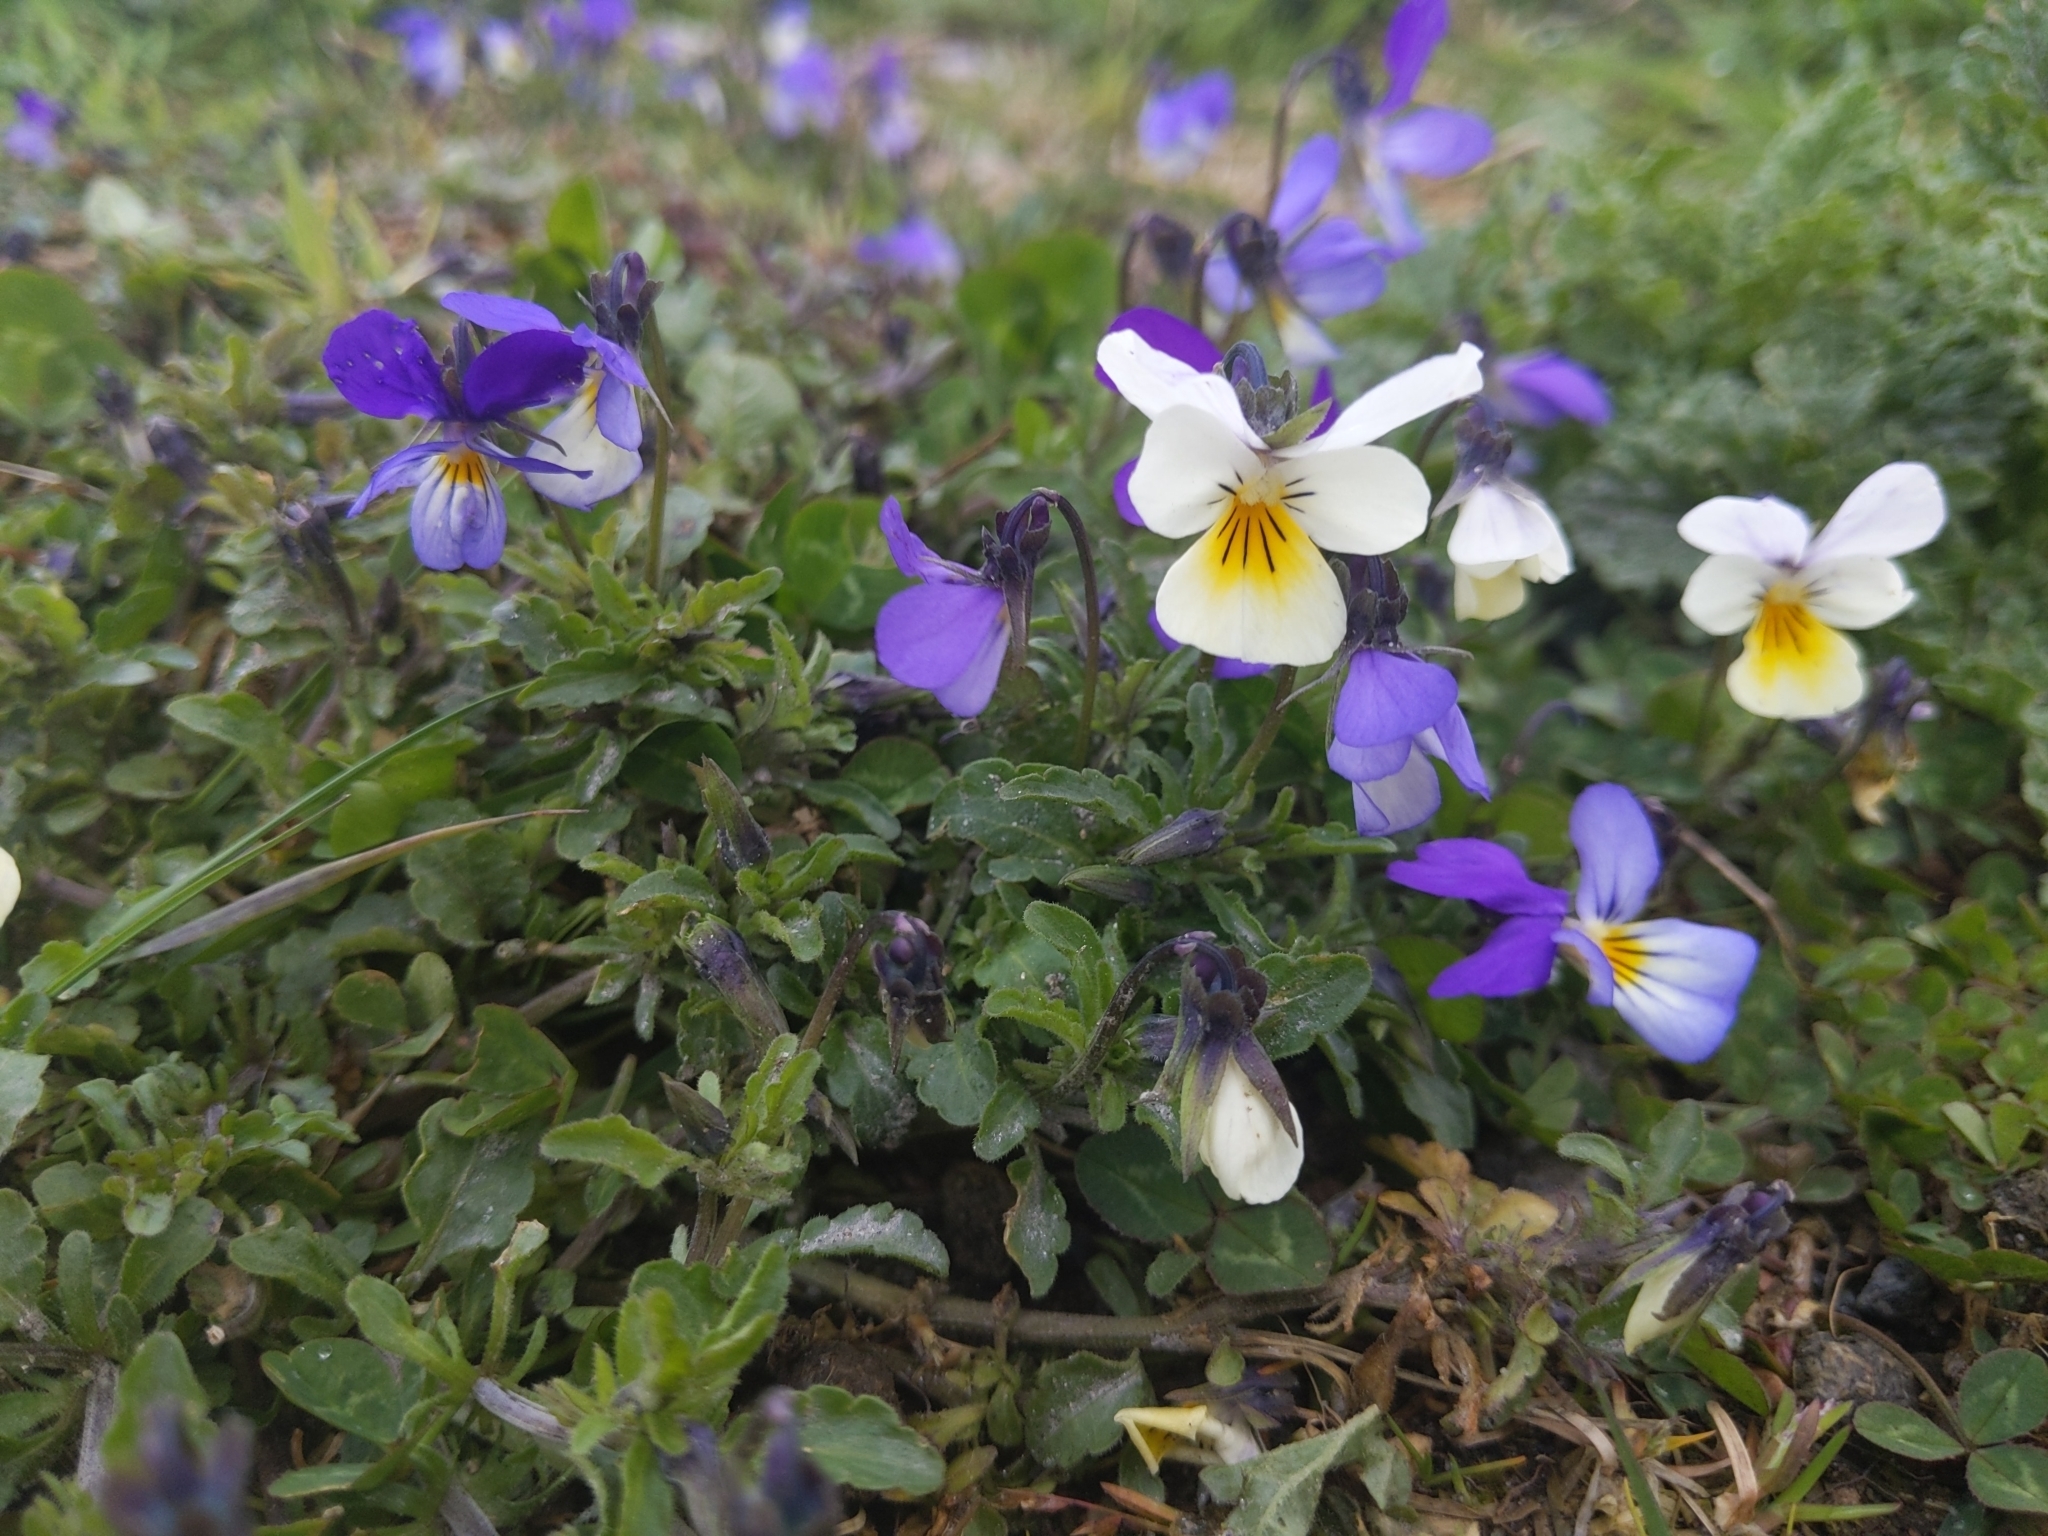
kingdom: Plantae
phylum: Tracheophyta
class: Magnoliopsida
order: Malpighiales
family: Violaceae
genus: Viola
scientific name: Viola tricolor
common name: Pansy
